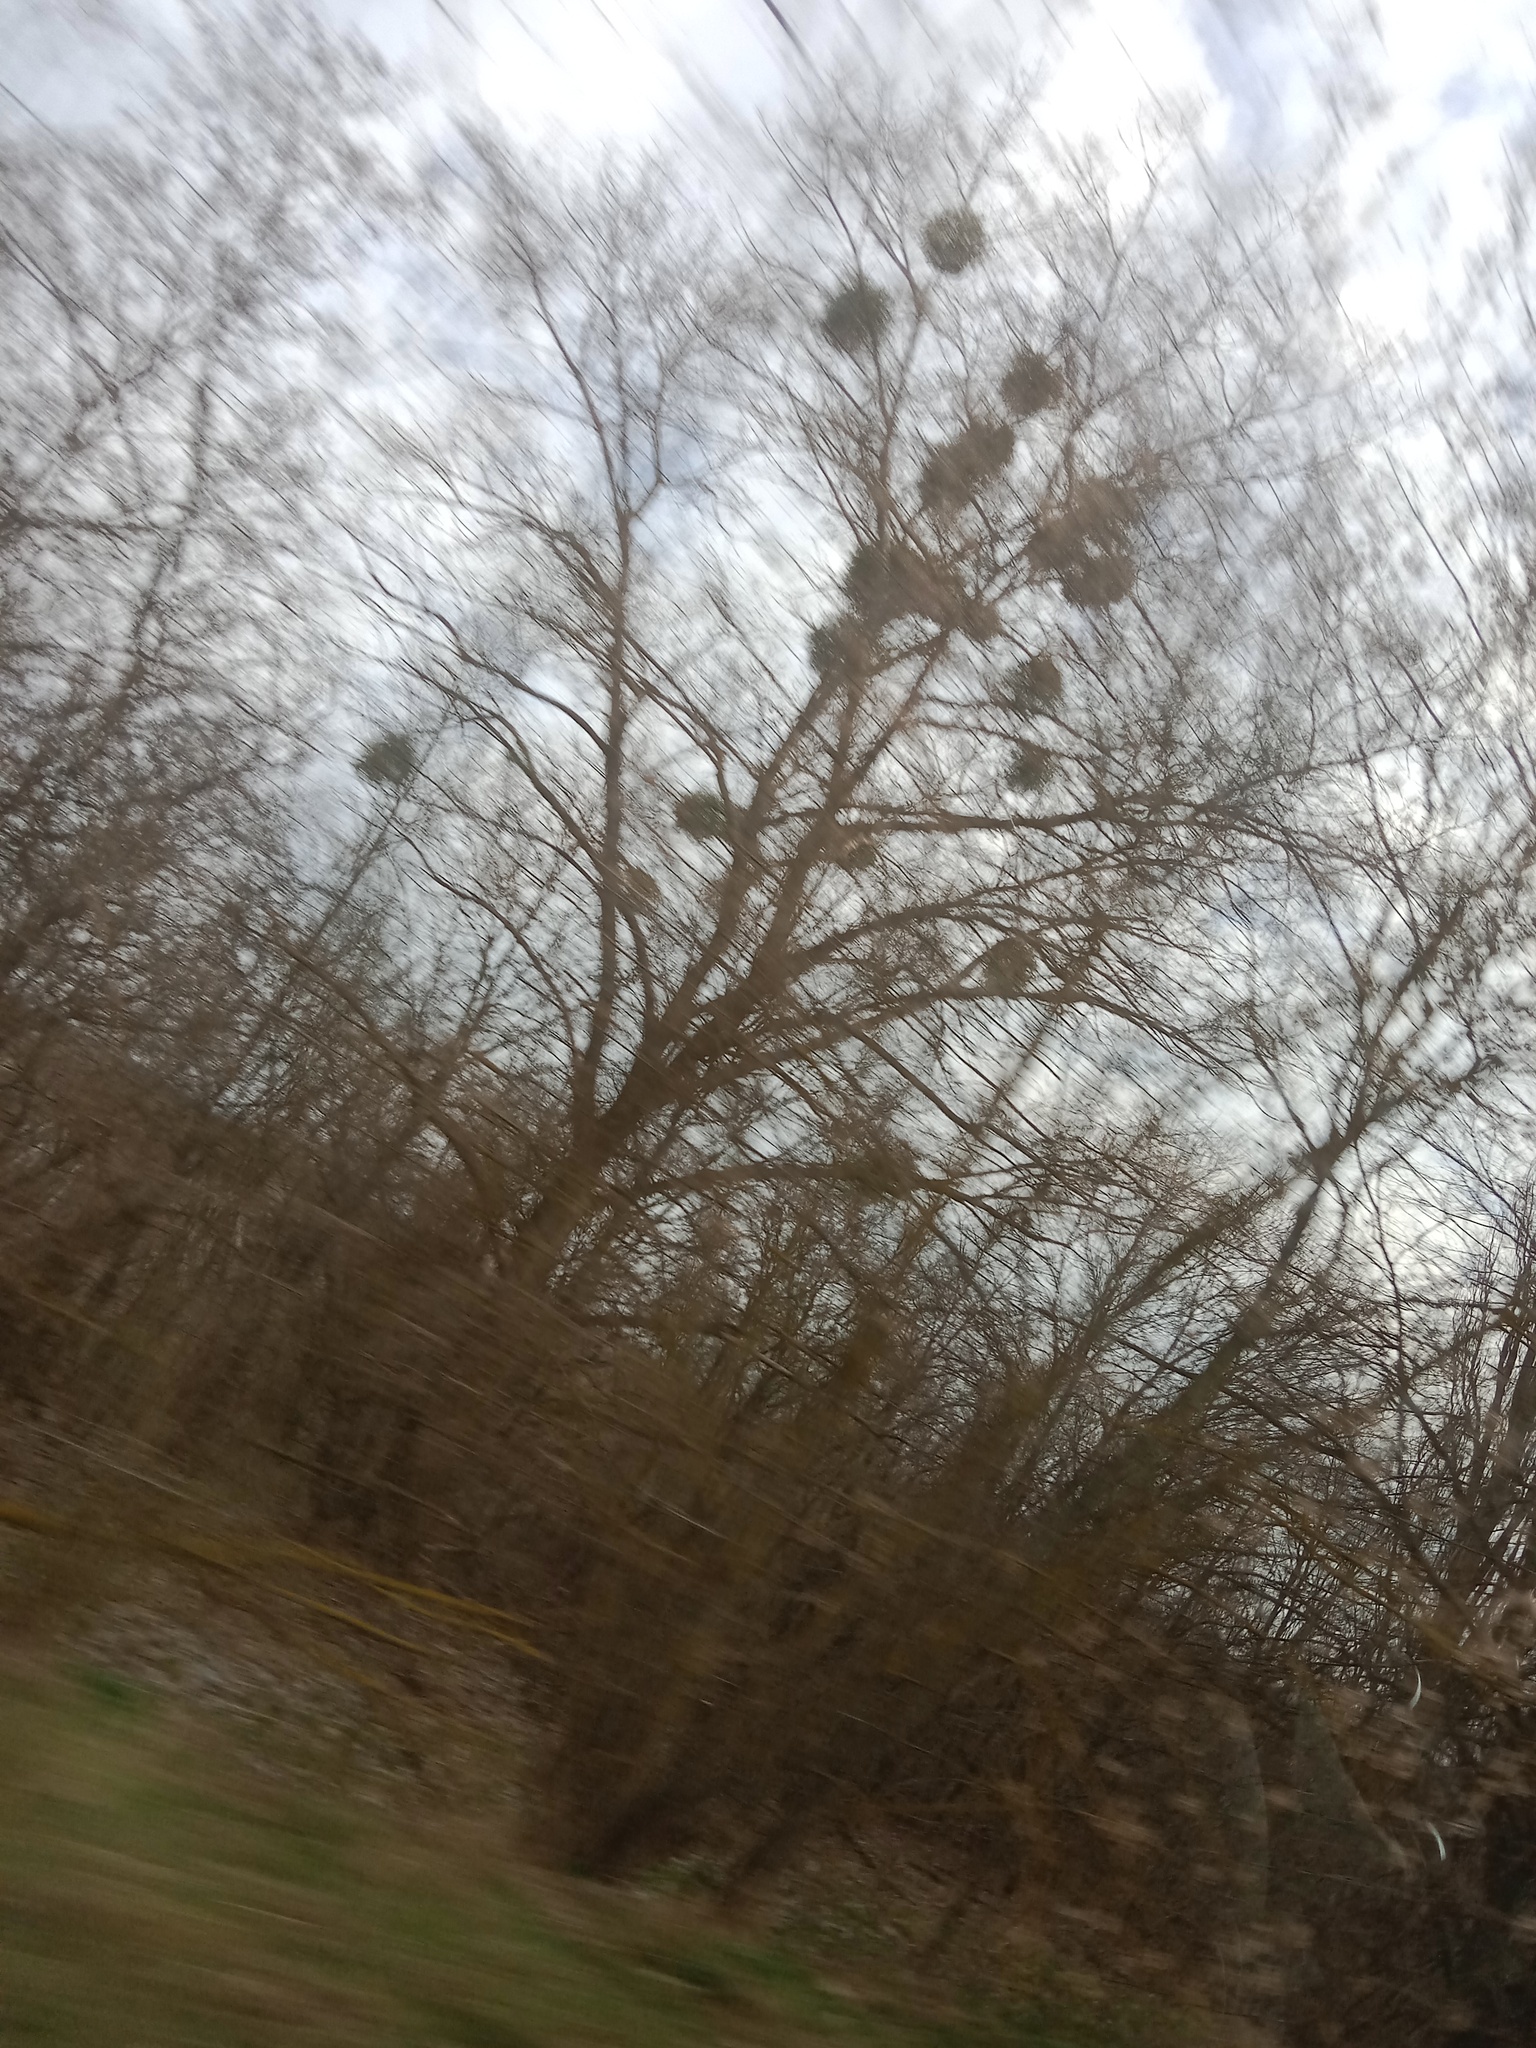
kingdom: Plantae
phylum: Tracheophyta
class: Magnoliopsida
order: Santalales
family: Viscaceae
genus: Viscum
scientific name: Viscum album
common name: Mistletoe
